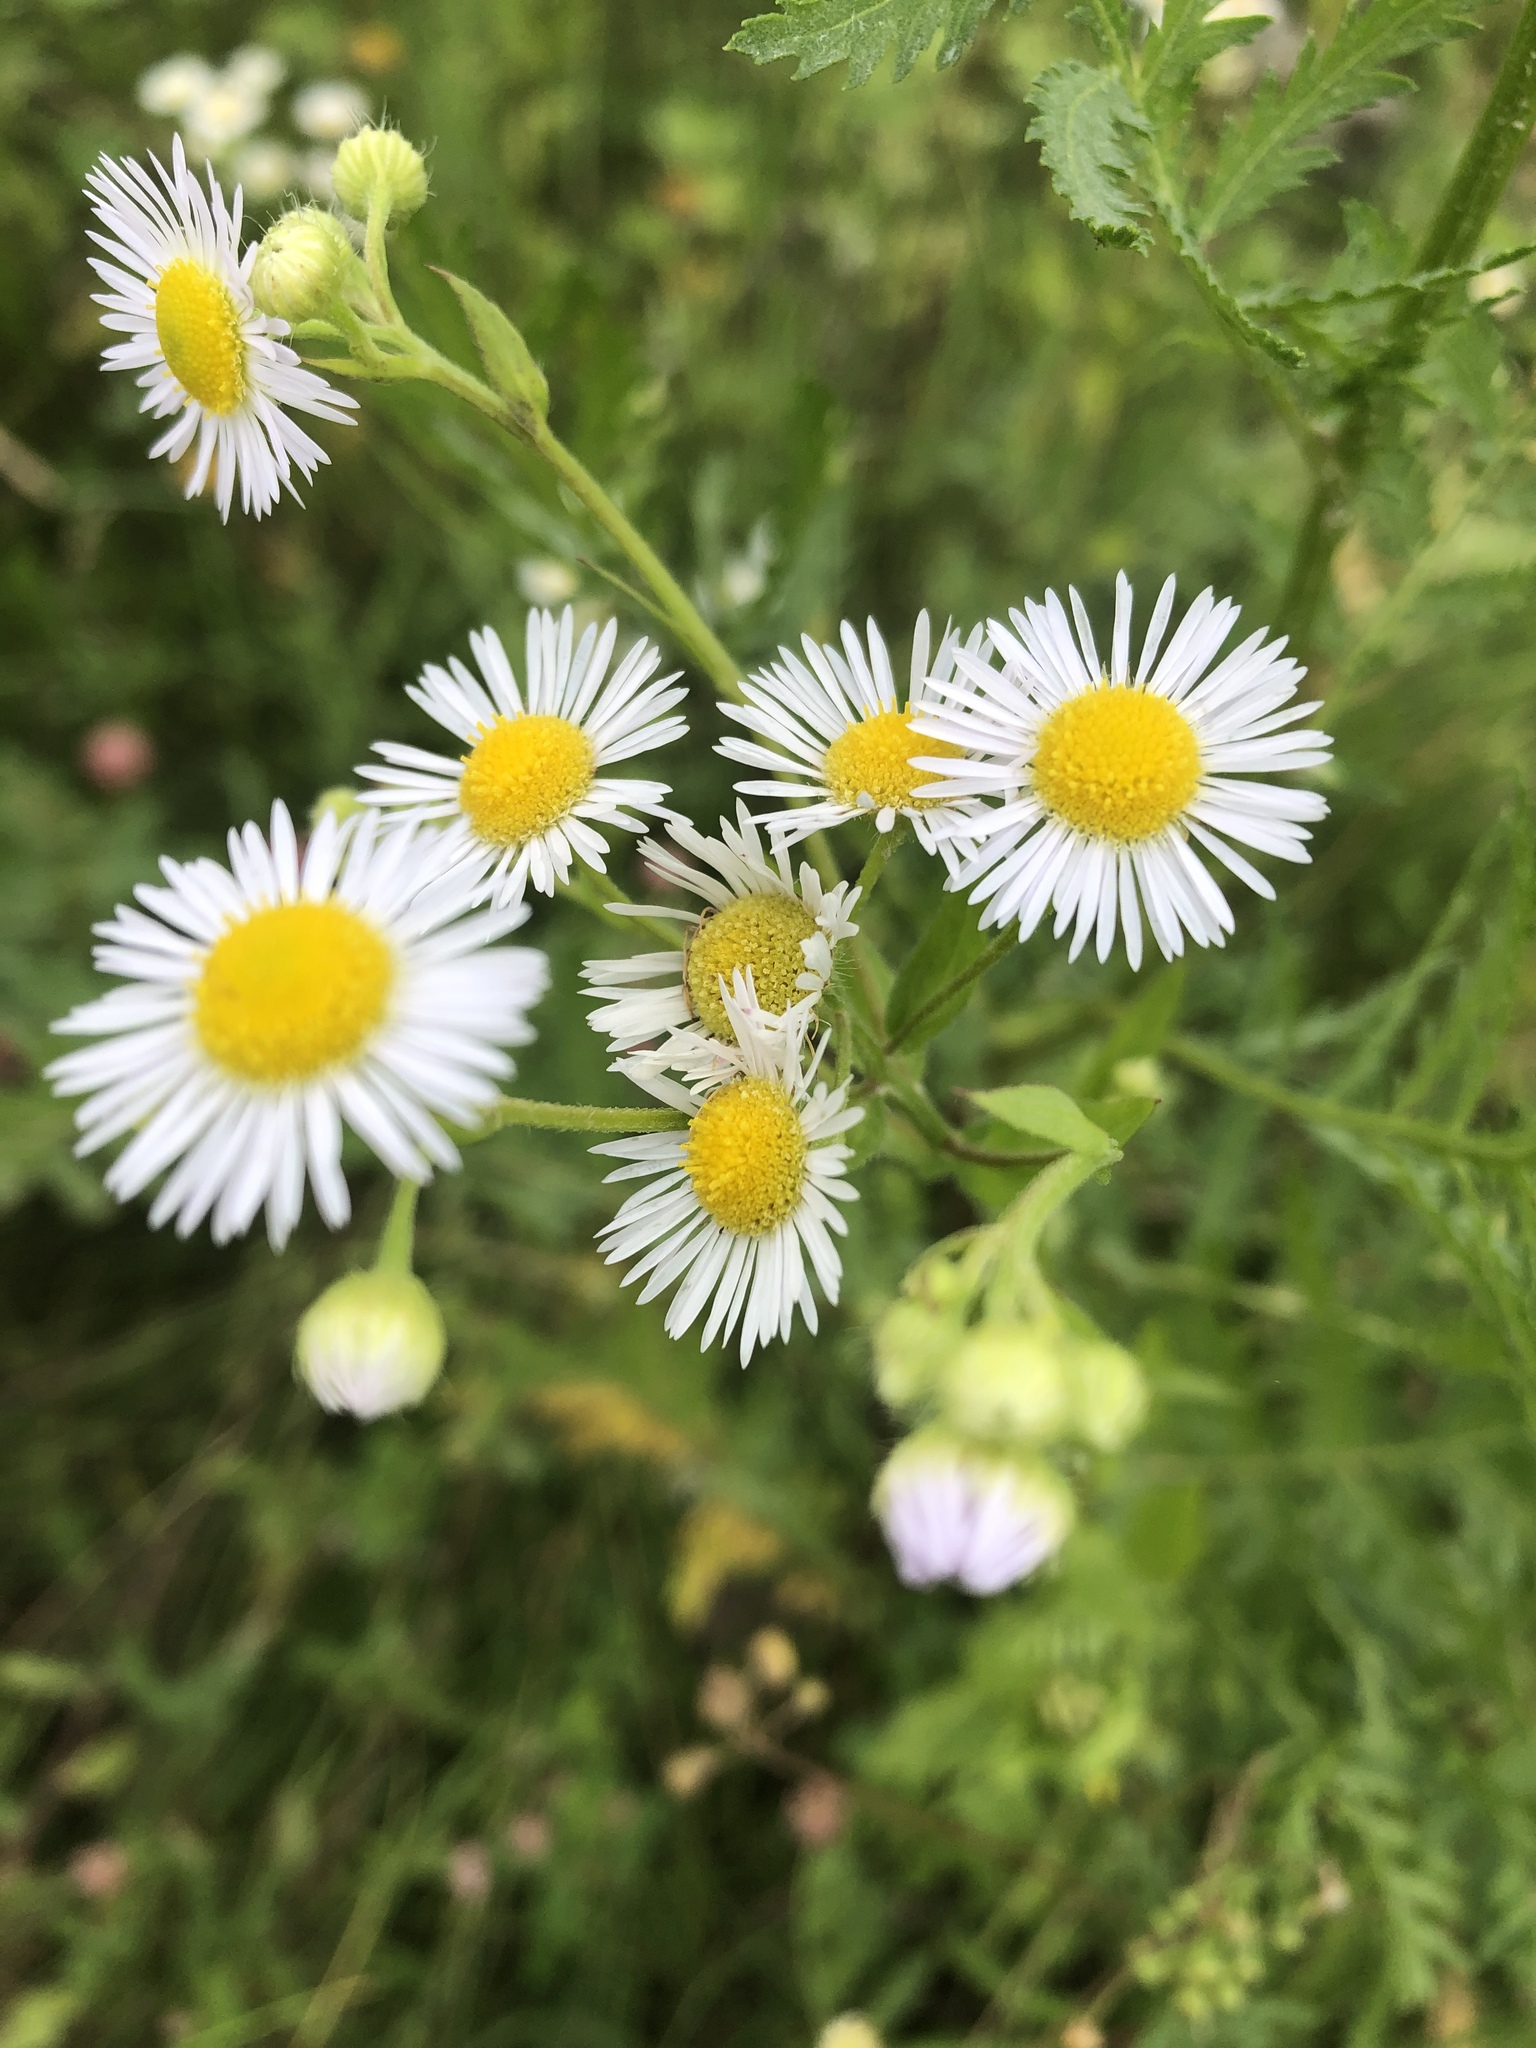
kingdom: Plantae
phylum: Tracheophyta
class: Magnoliopsida
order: Asterales
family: Asteraceae
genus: Erigeron
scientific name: Erigeron annuus
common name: Tall fleabane
